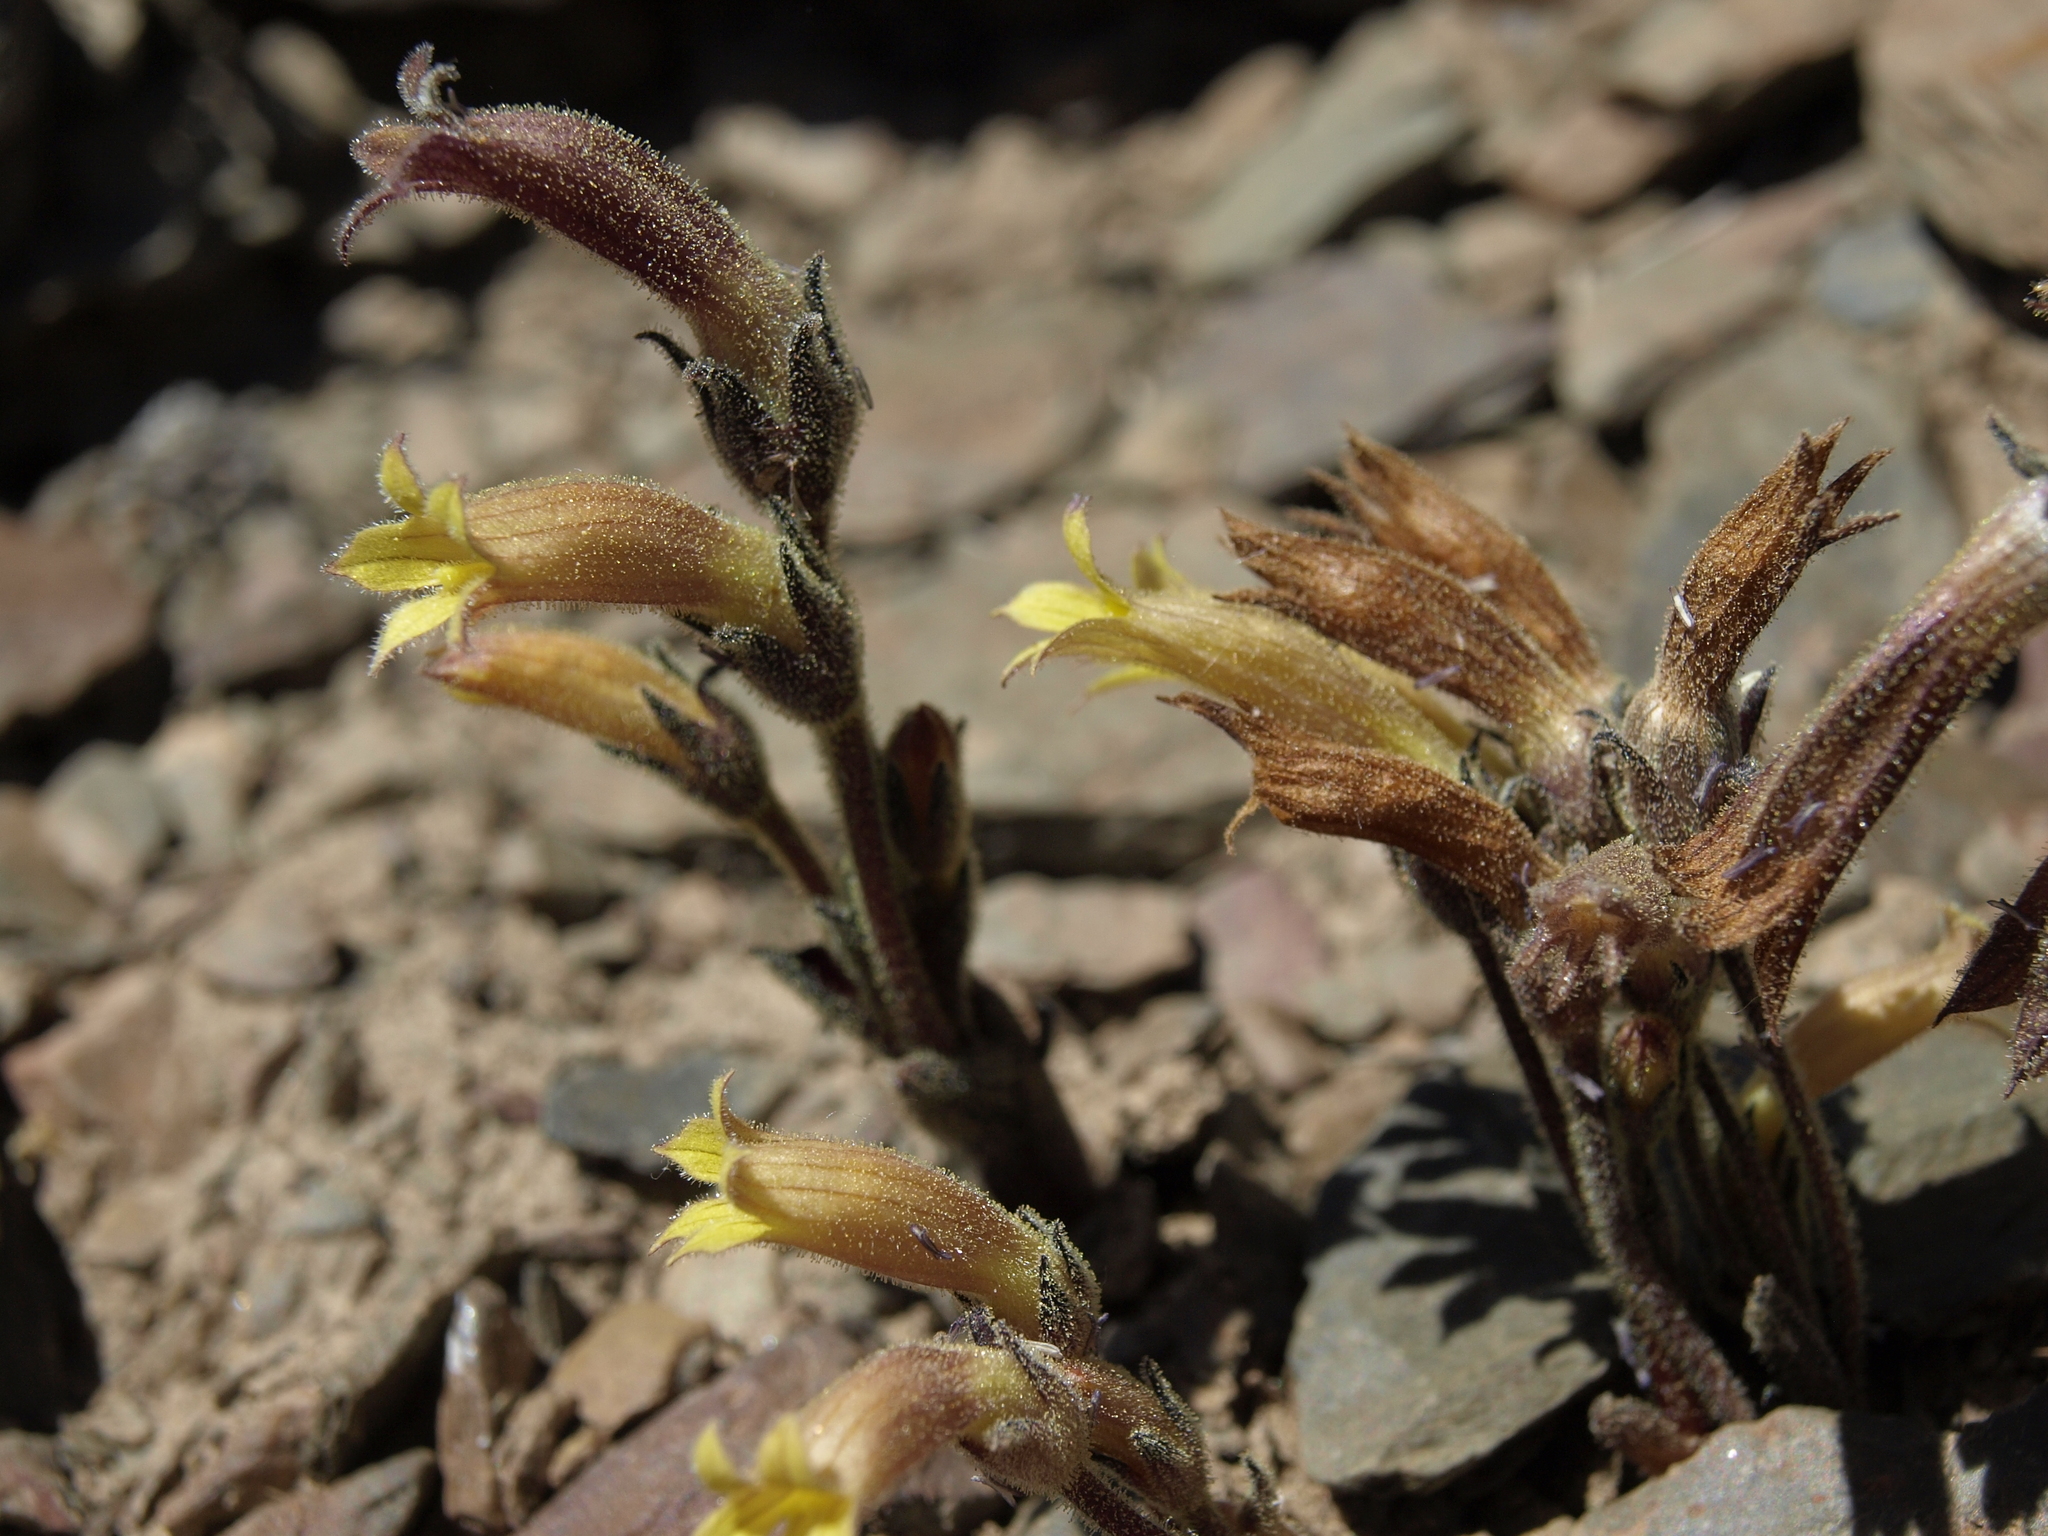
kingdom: Plantae
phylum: Tracheophyta
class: Magnoliopsida
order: Lamiales
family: Orobanchaceae
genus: Aphyllon
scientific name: Aphyllon franciscanum
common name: San francisco broomrape
